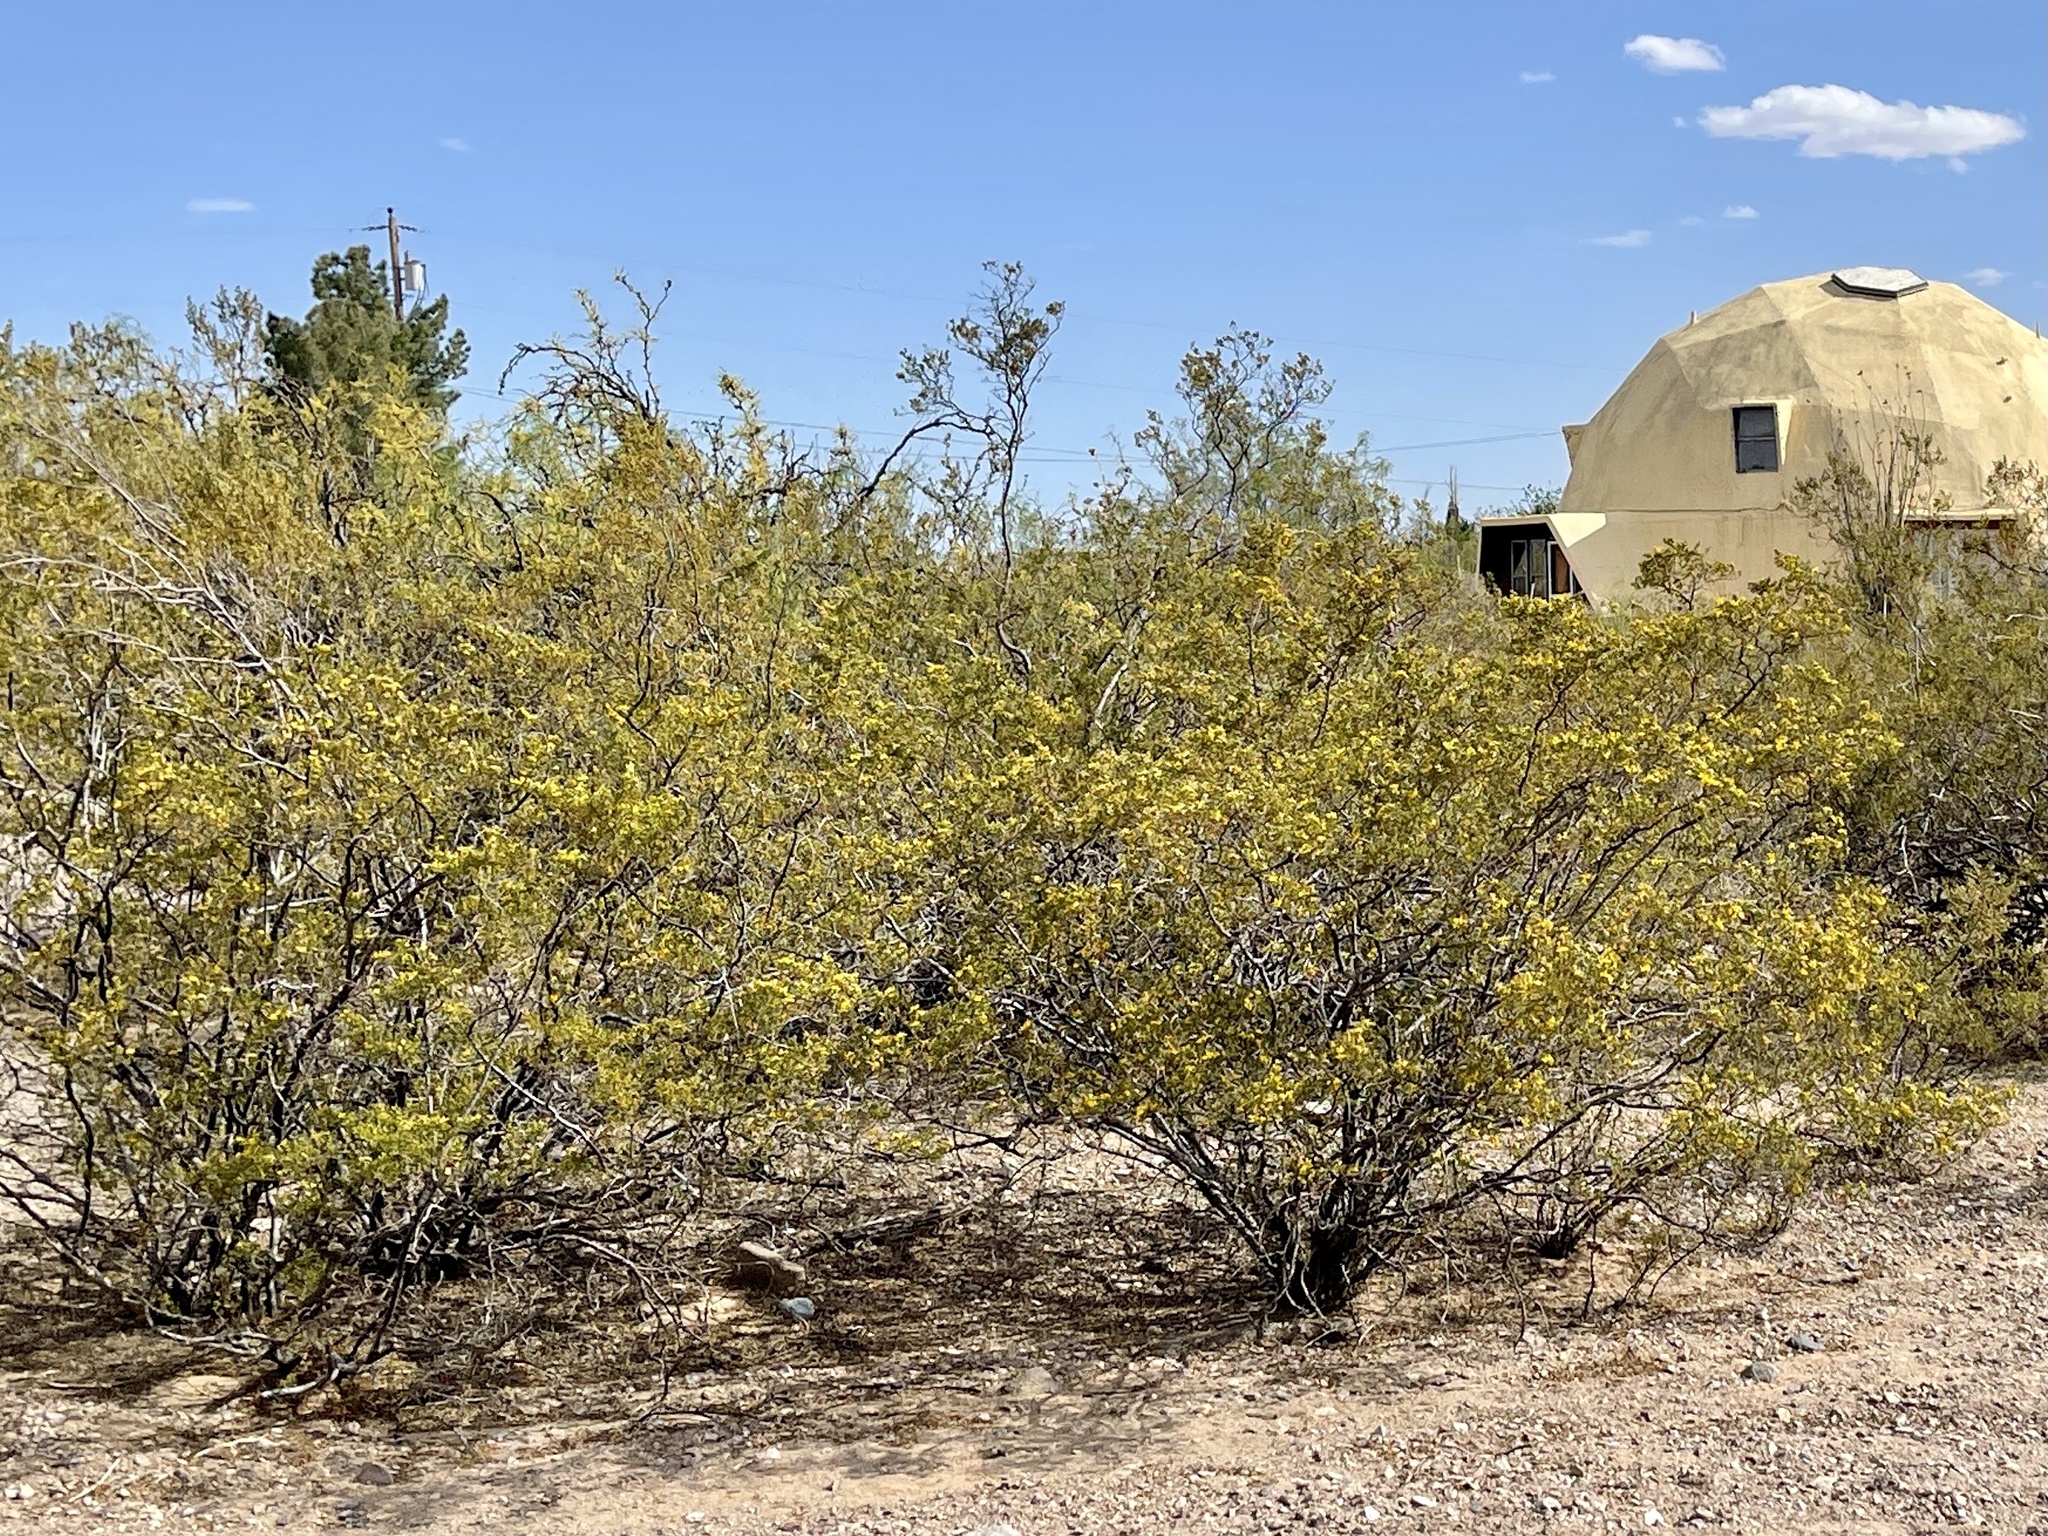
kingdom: Plantae
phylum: Tracheophyta
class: Magnoliopsida
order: Zygophyllales
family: Zygophyllaceae
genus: Larrea
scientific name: Larrea tridentata
